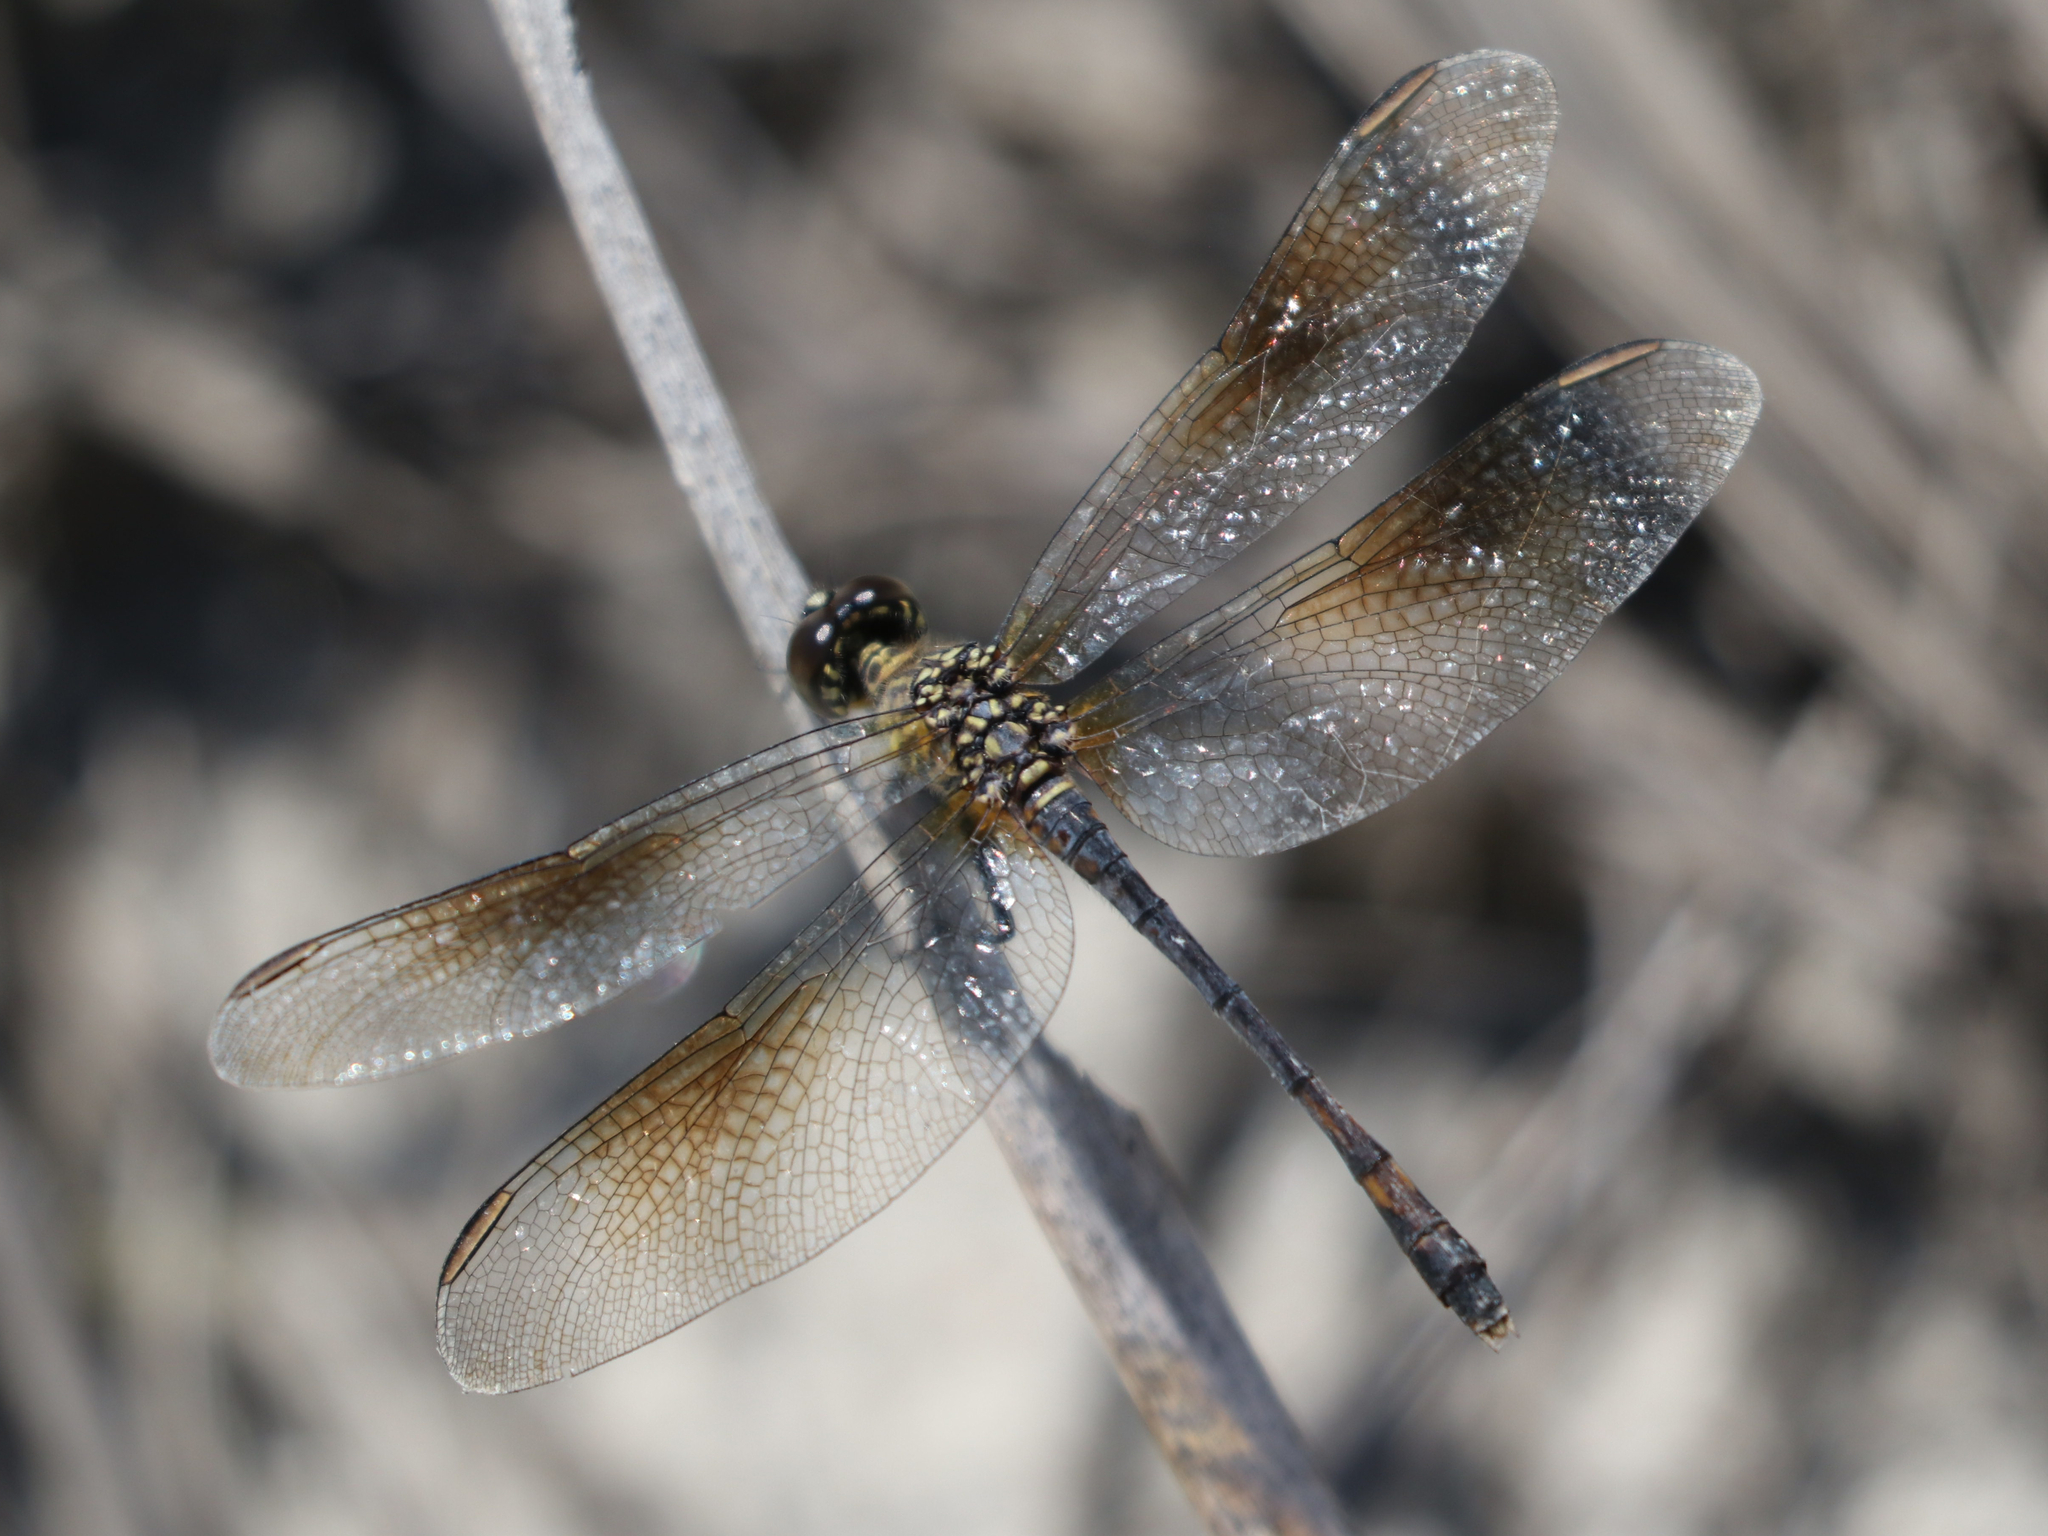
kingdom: Animalia
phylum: Arthropoda
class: Insecta
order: Odonata
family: Libellulidae
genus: Erythrodiplax
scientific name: Erythrodiplax berenice
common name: Seaside dragonlet
